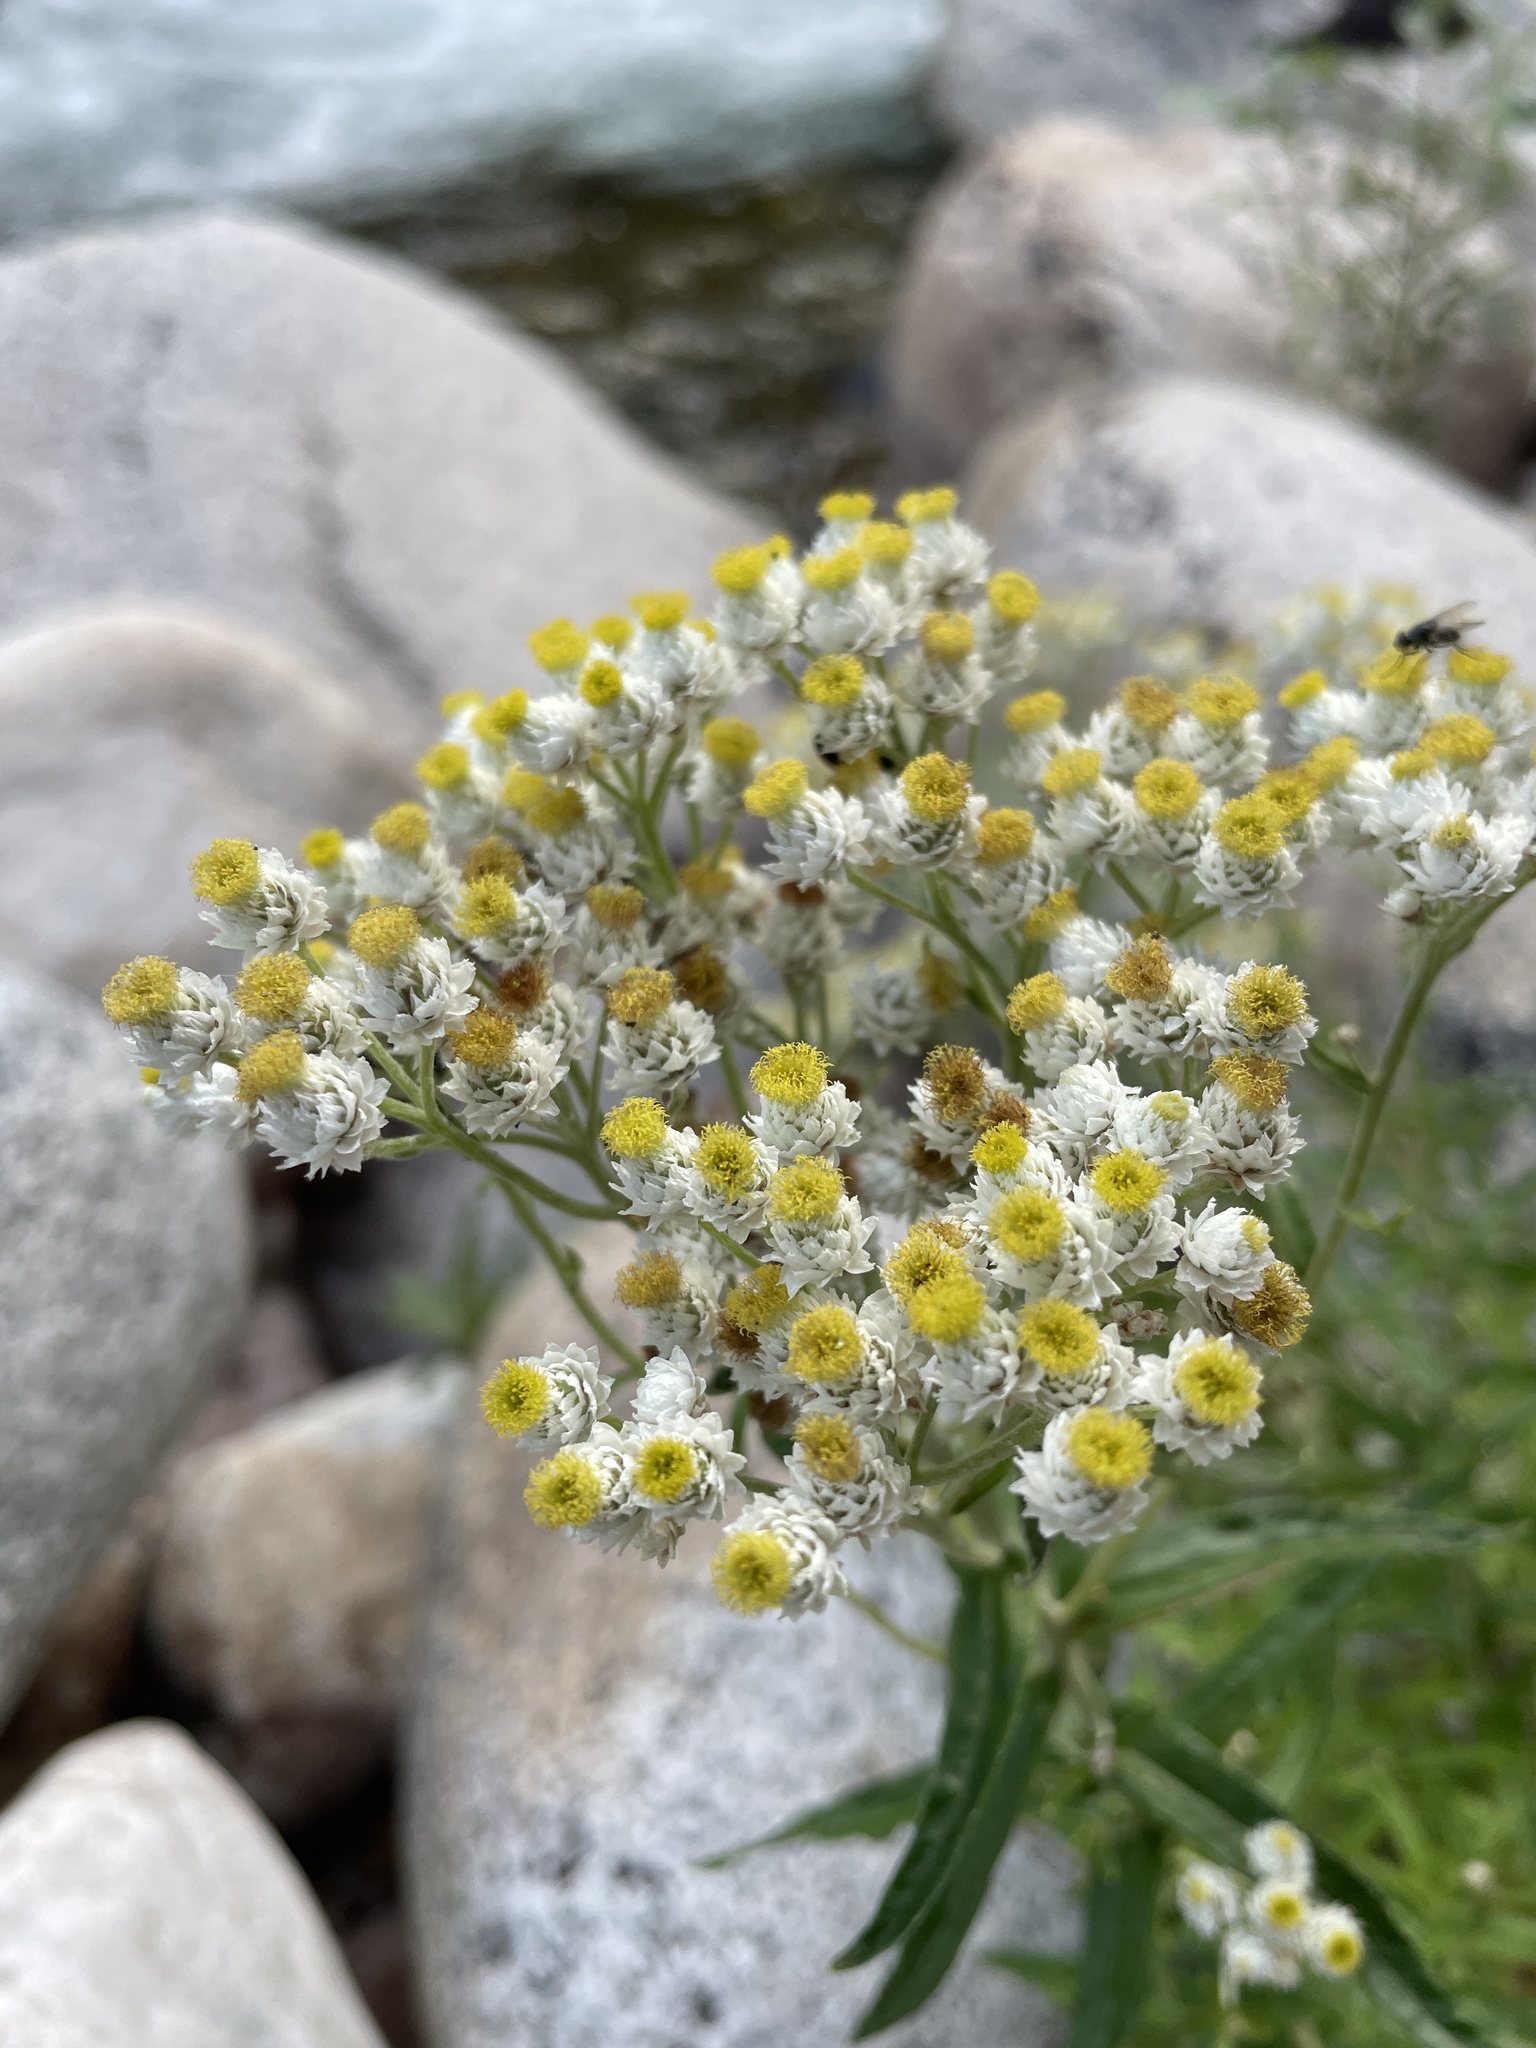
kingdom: Plantae
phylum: Tracheophyta
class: Magnoliopsida
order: Asterales
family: Asteraceae
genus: Anaphalis
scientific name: Anaphalis margaritacea
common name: Pearly everlasting
